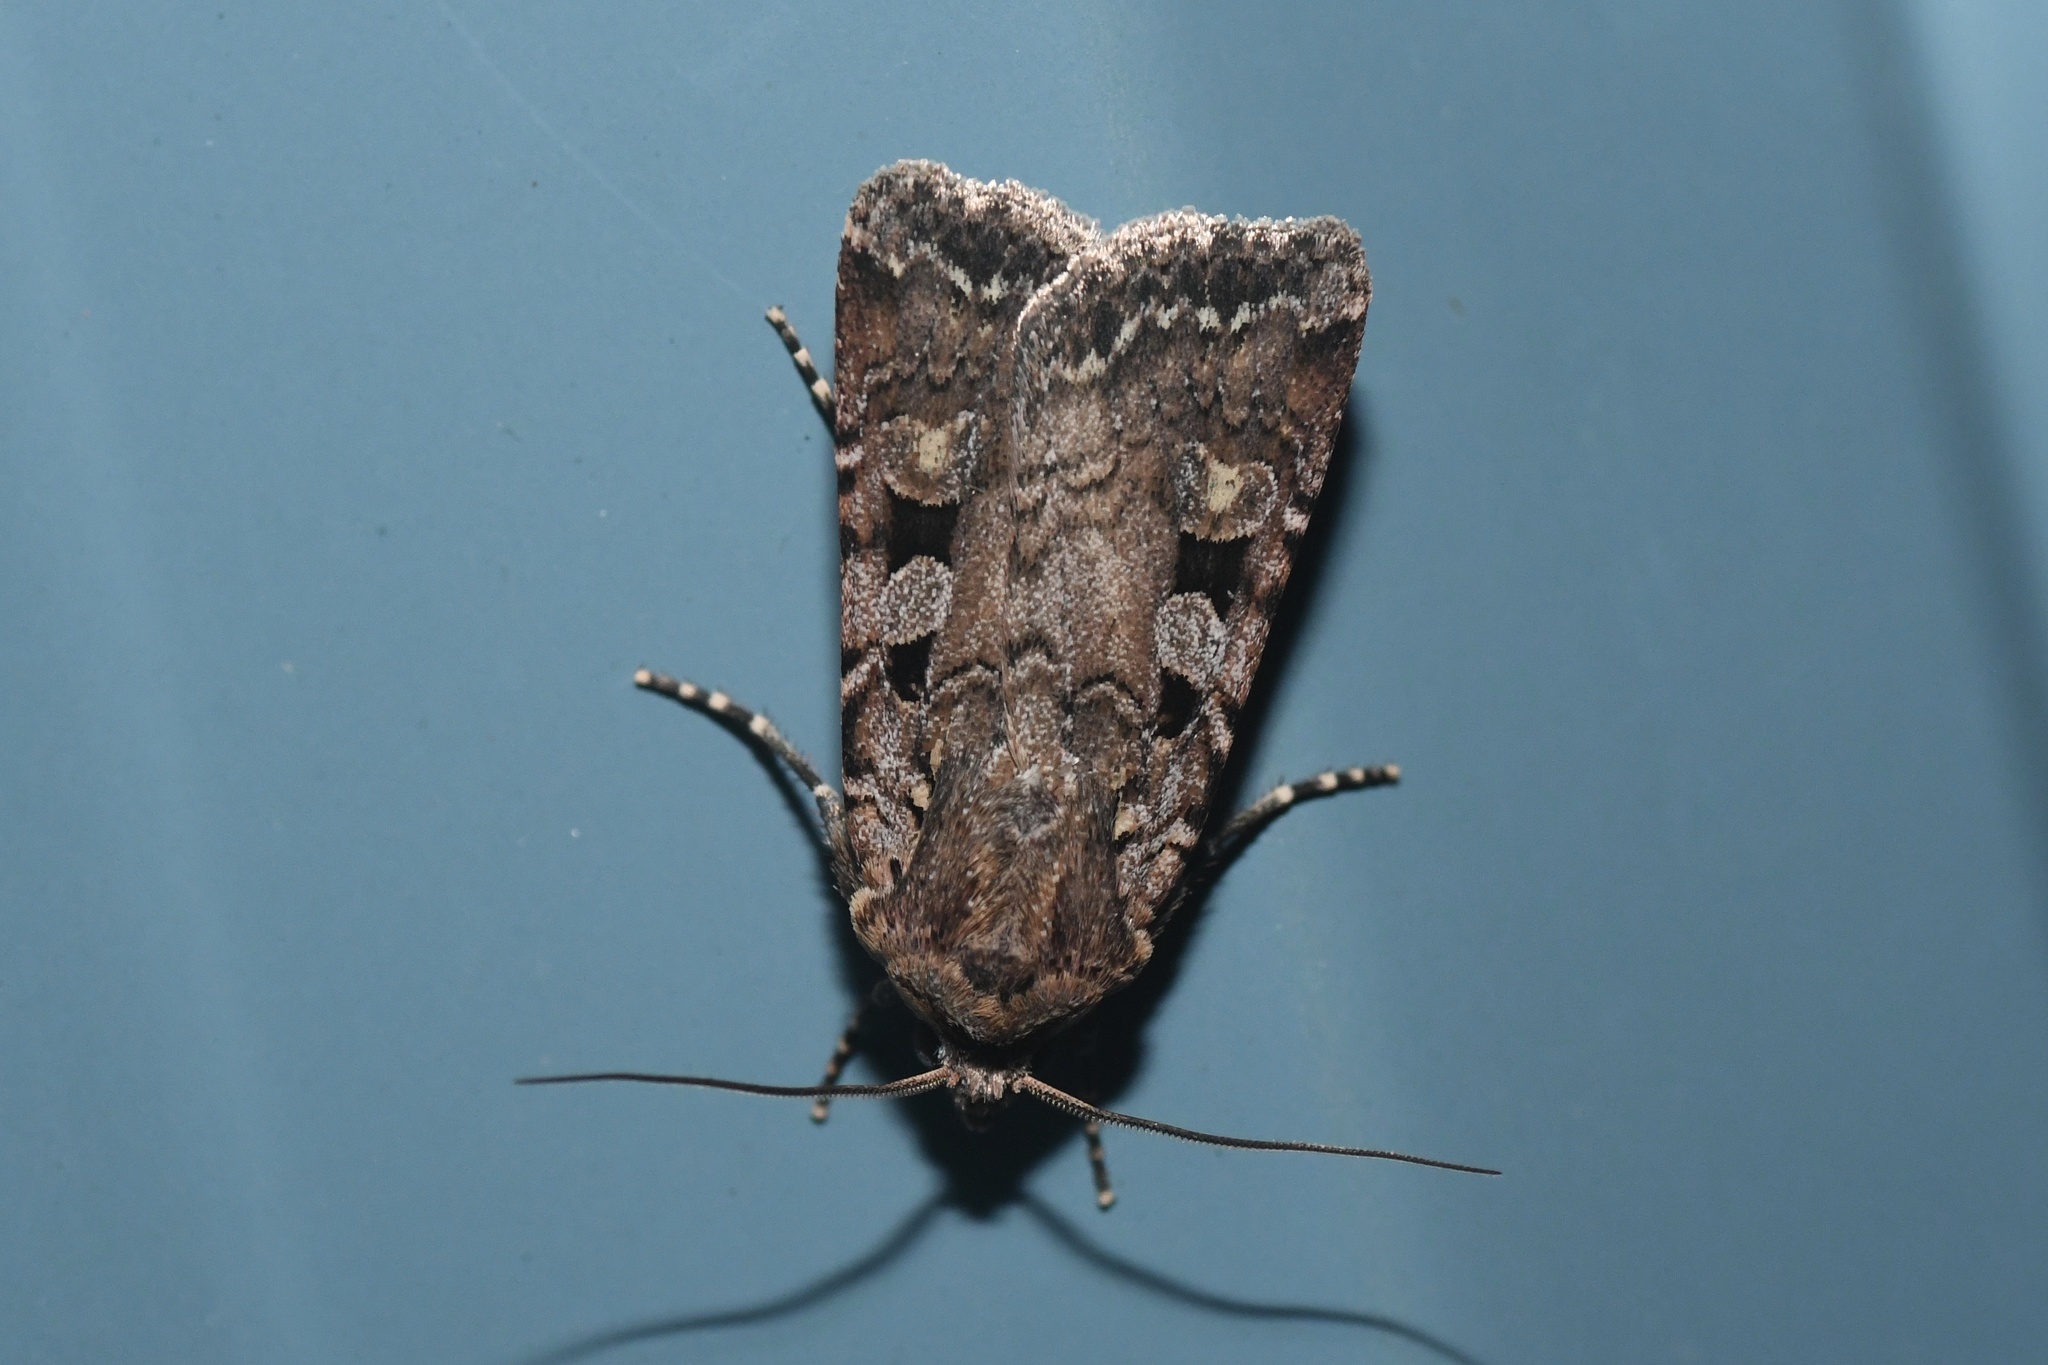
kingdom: Animalia
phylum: Arthropoda
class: Insecta
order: Lepidoptera
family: Noctuidae
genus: Euxoa
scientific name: Euxoa tessellata
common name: Striped cutworm
